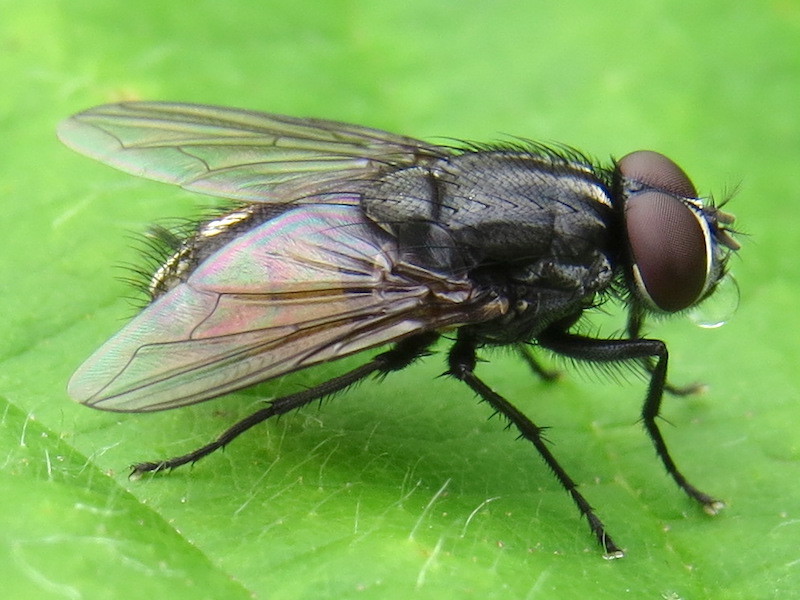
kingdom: Animalia
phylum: Arthropoda
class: Insecta
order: Diptera
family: Muscidae
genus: Musca
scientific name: Musca autumnalis
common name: Face fly
